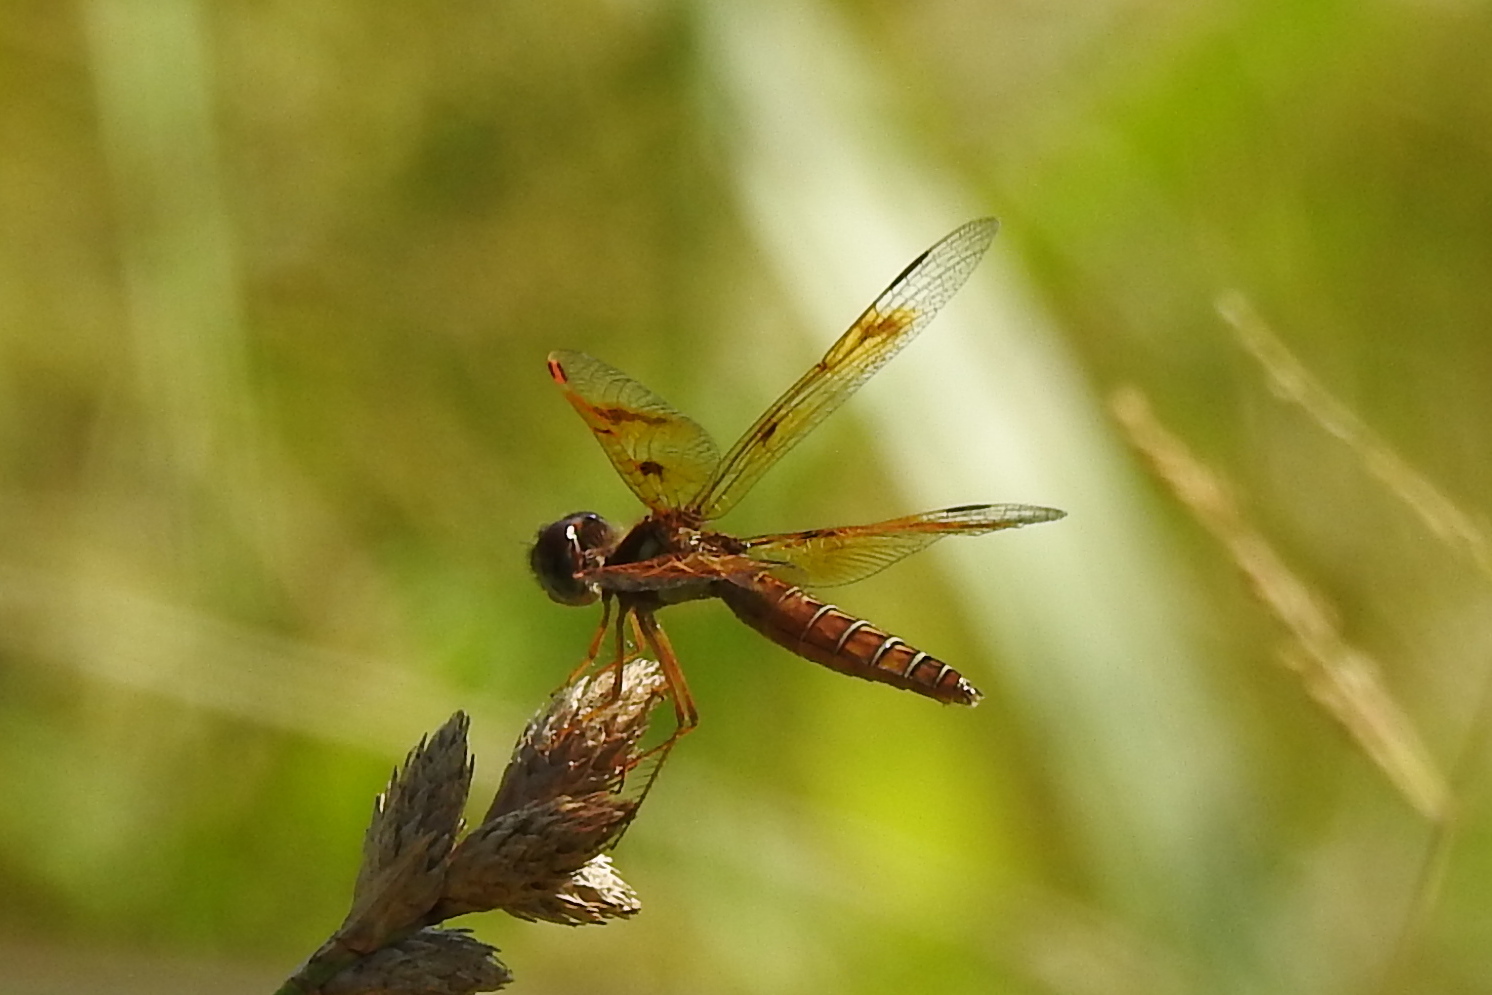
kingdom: Animalia
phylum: Arthropoda
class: Insecta
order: Odonata
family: Libellulidae
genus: Perithemis
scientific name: Perithemis tenera
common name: Eastern amberwing
